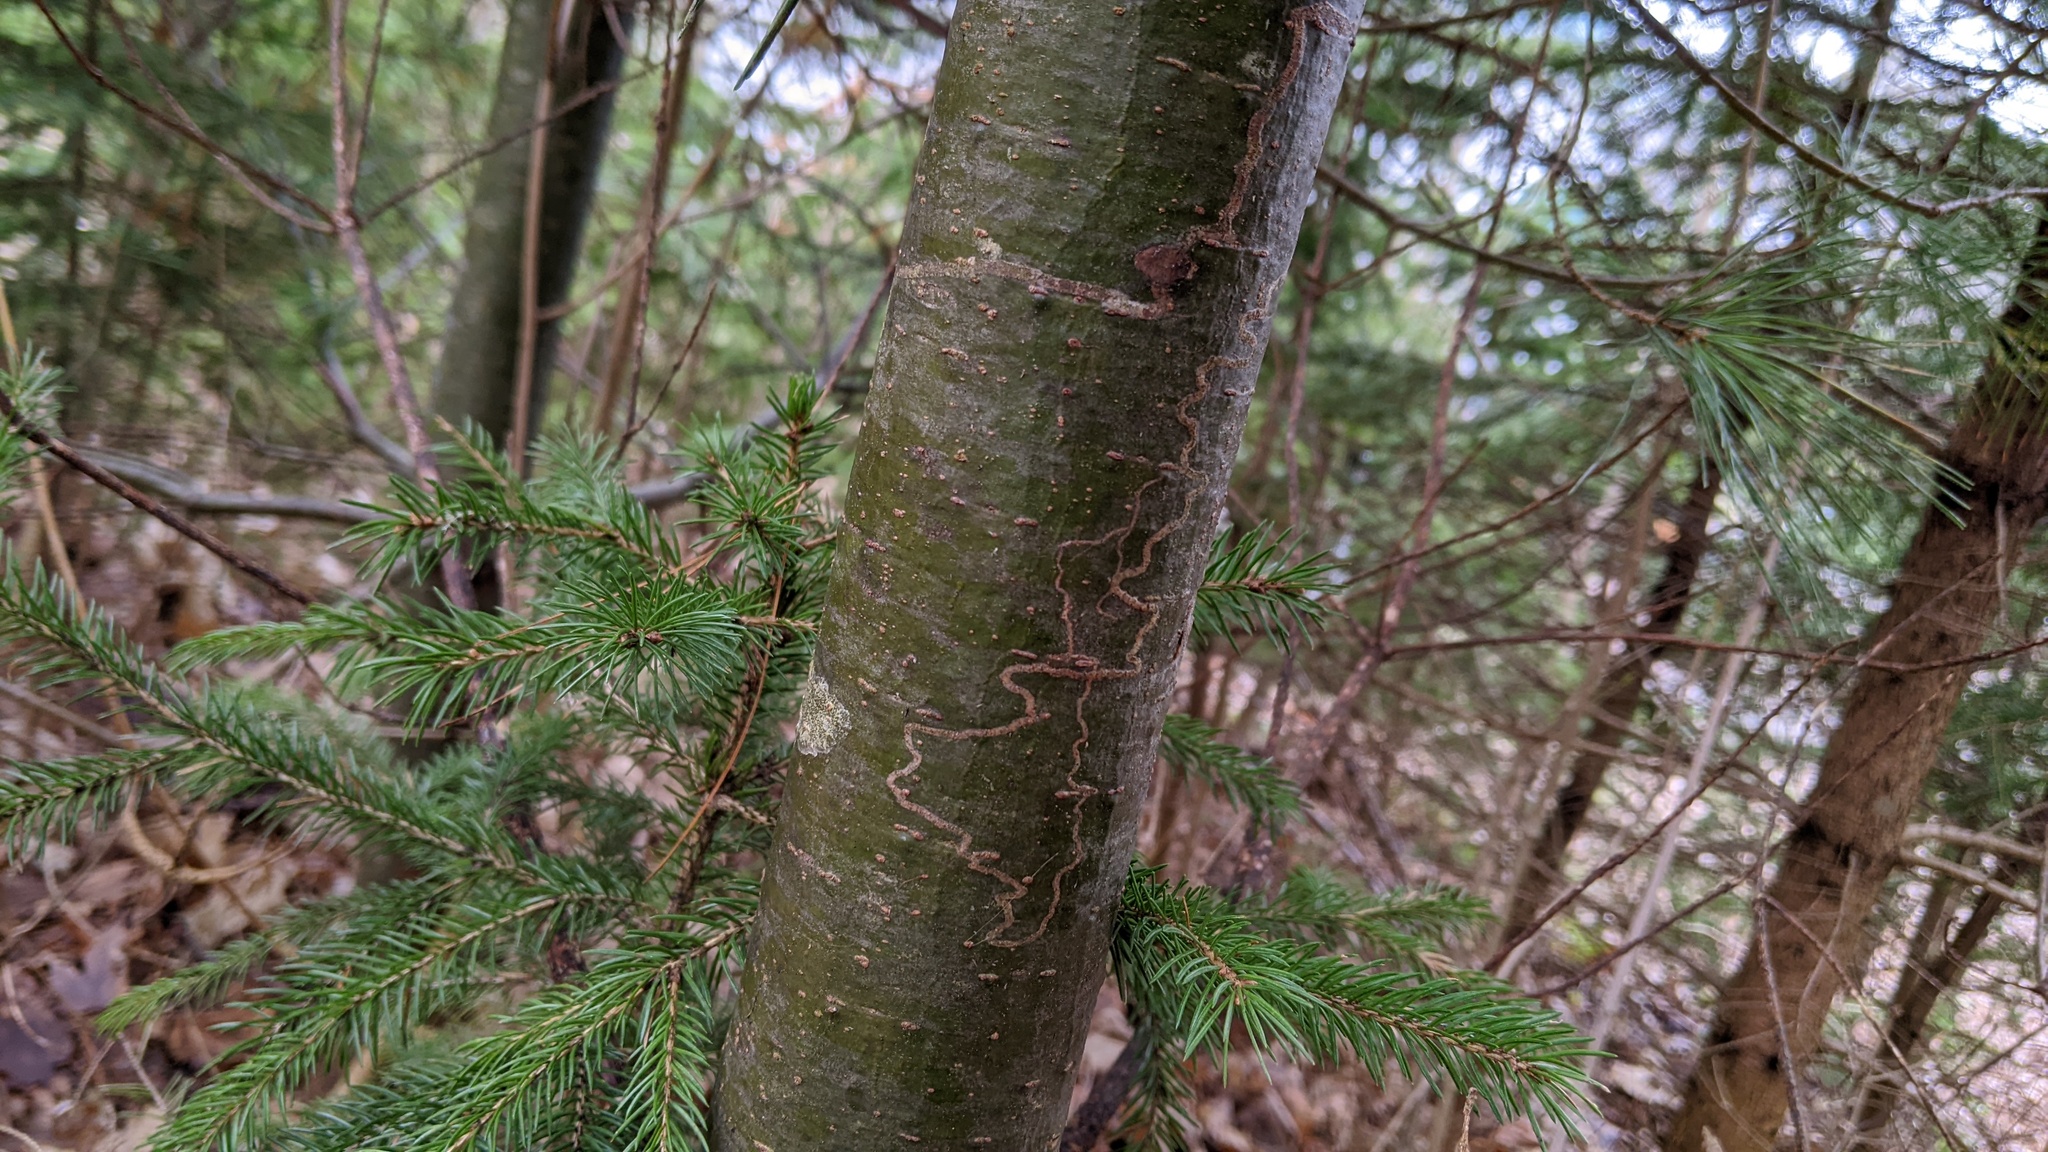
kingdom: Animalia
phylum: Arthropoda
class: Insecta
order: Lepidoptera
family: Gracillariidae
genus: Marmara
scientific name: Marmara fasciella
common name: White pine barkminer moth
